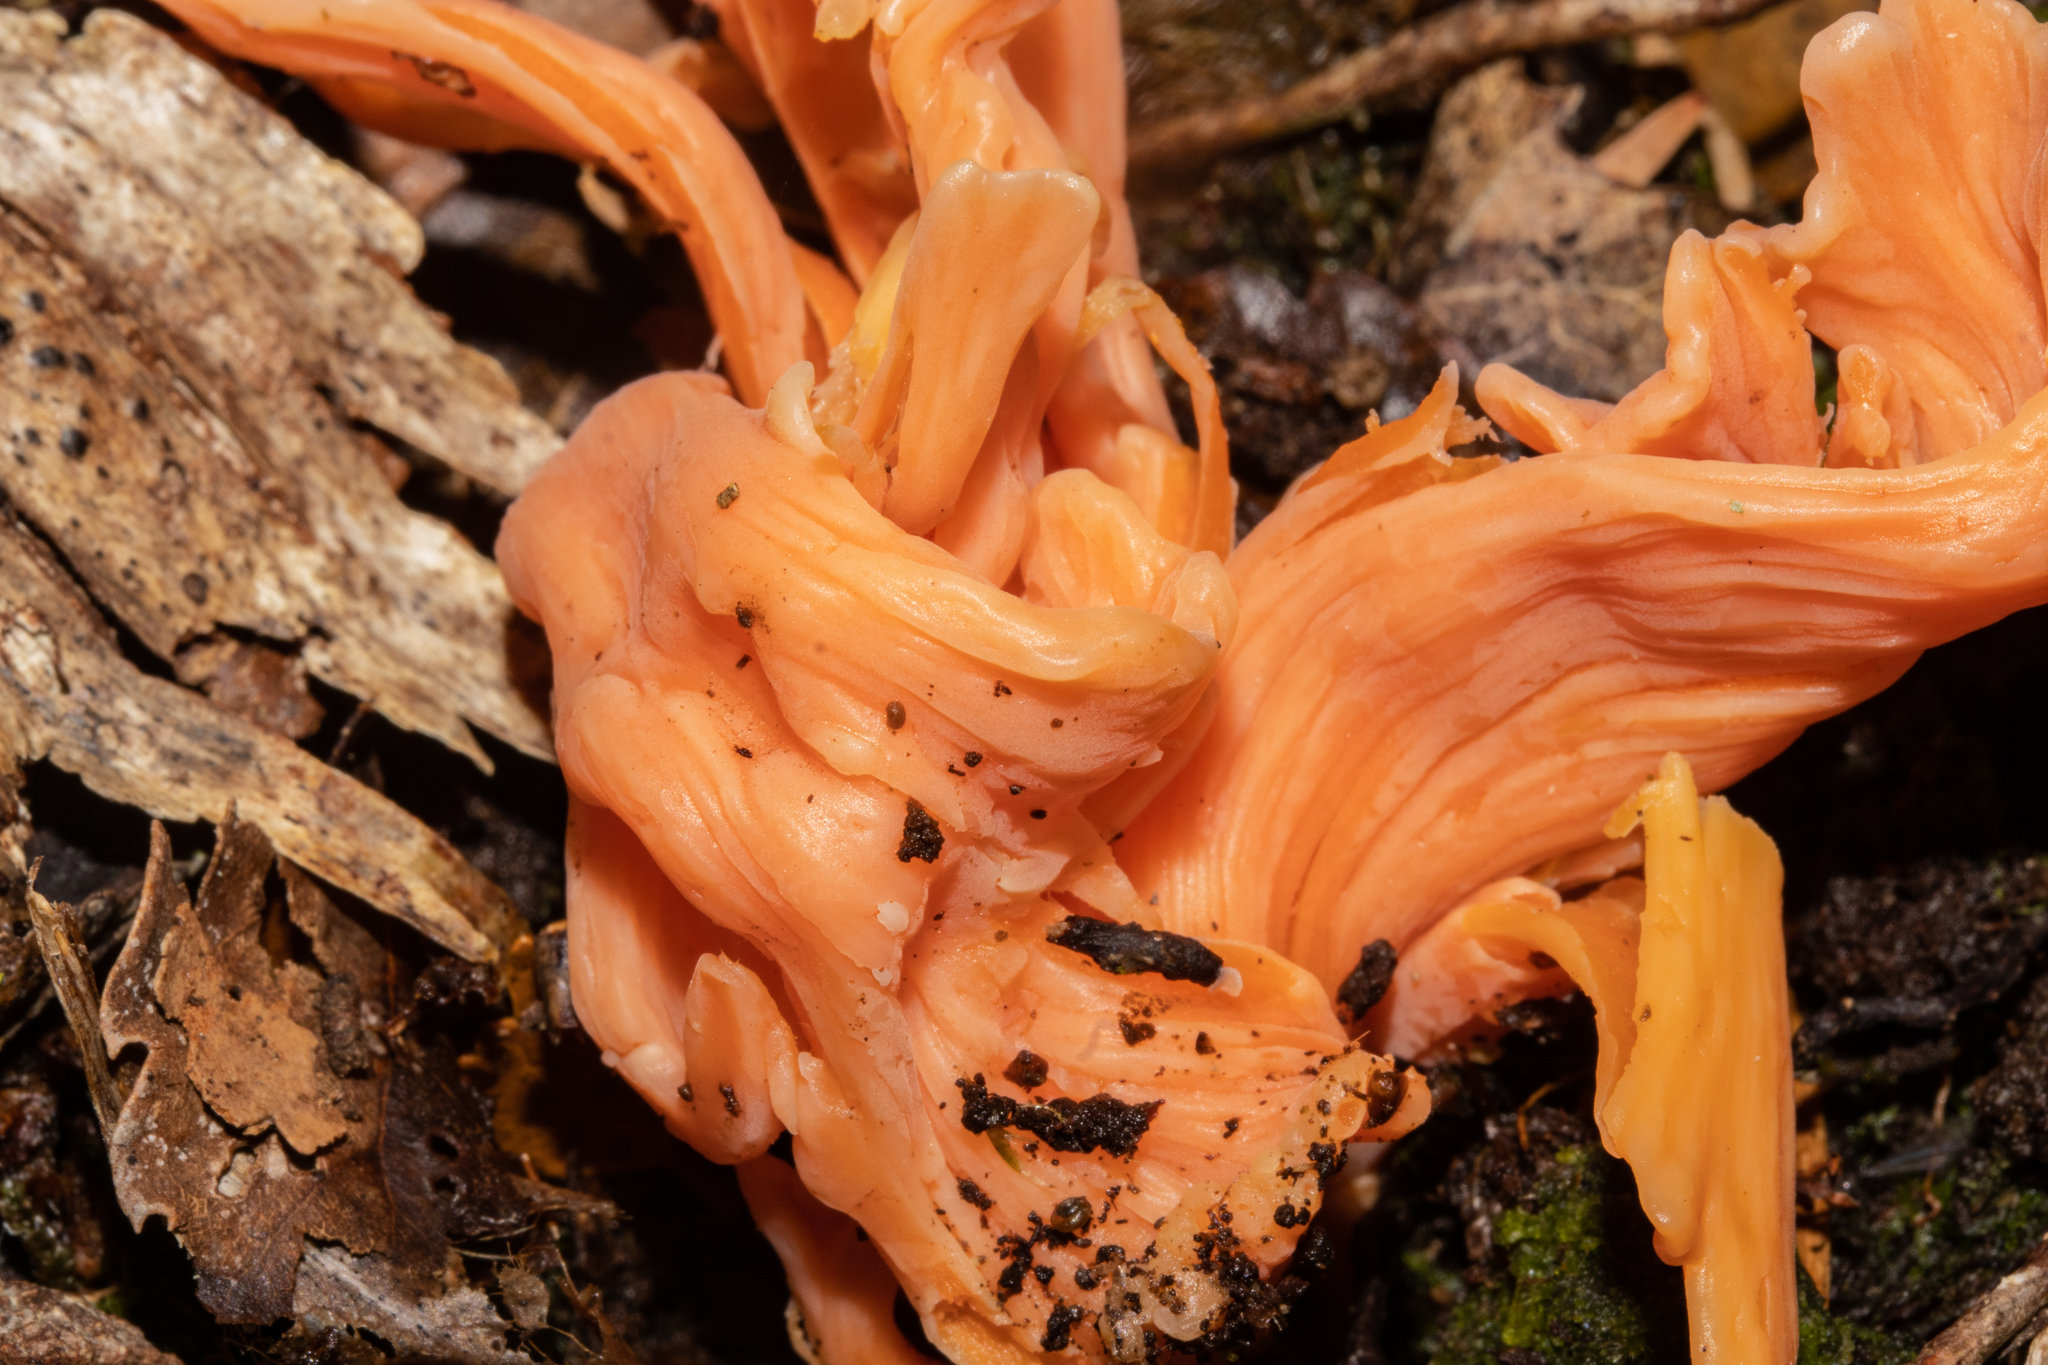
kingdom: Fungi
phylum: Basidiomycota
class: Agaricomycetes
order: Agaricales
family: Clavariaceae
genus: Clavulinopsis
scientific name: Clavulinopsis sulcata
